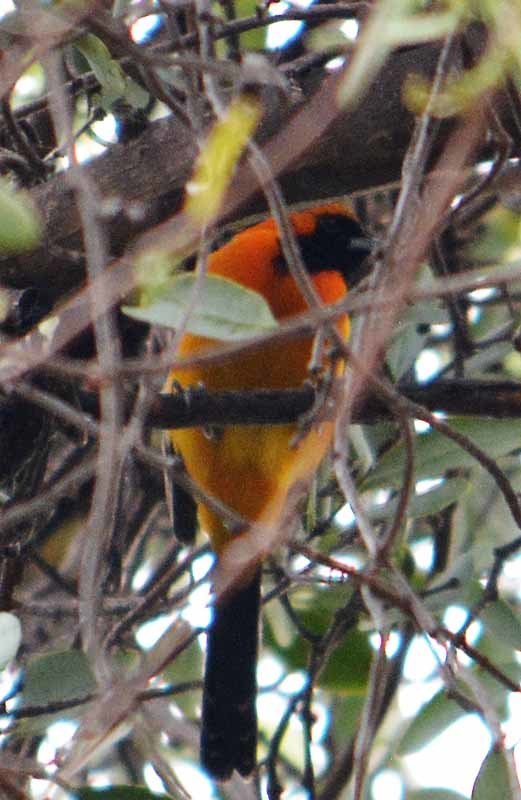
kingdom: Animalia
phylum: Chordata
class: Aves
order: Passeriformes
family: Icteridae
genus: Icterus
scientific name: Icterus cucullatus
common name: Hooded oriole
